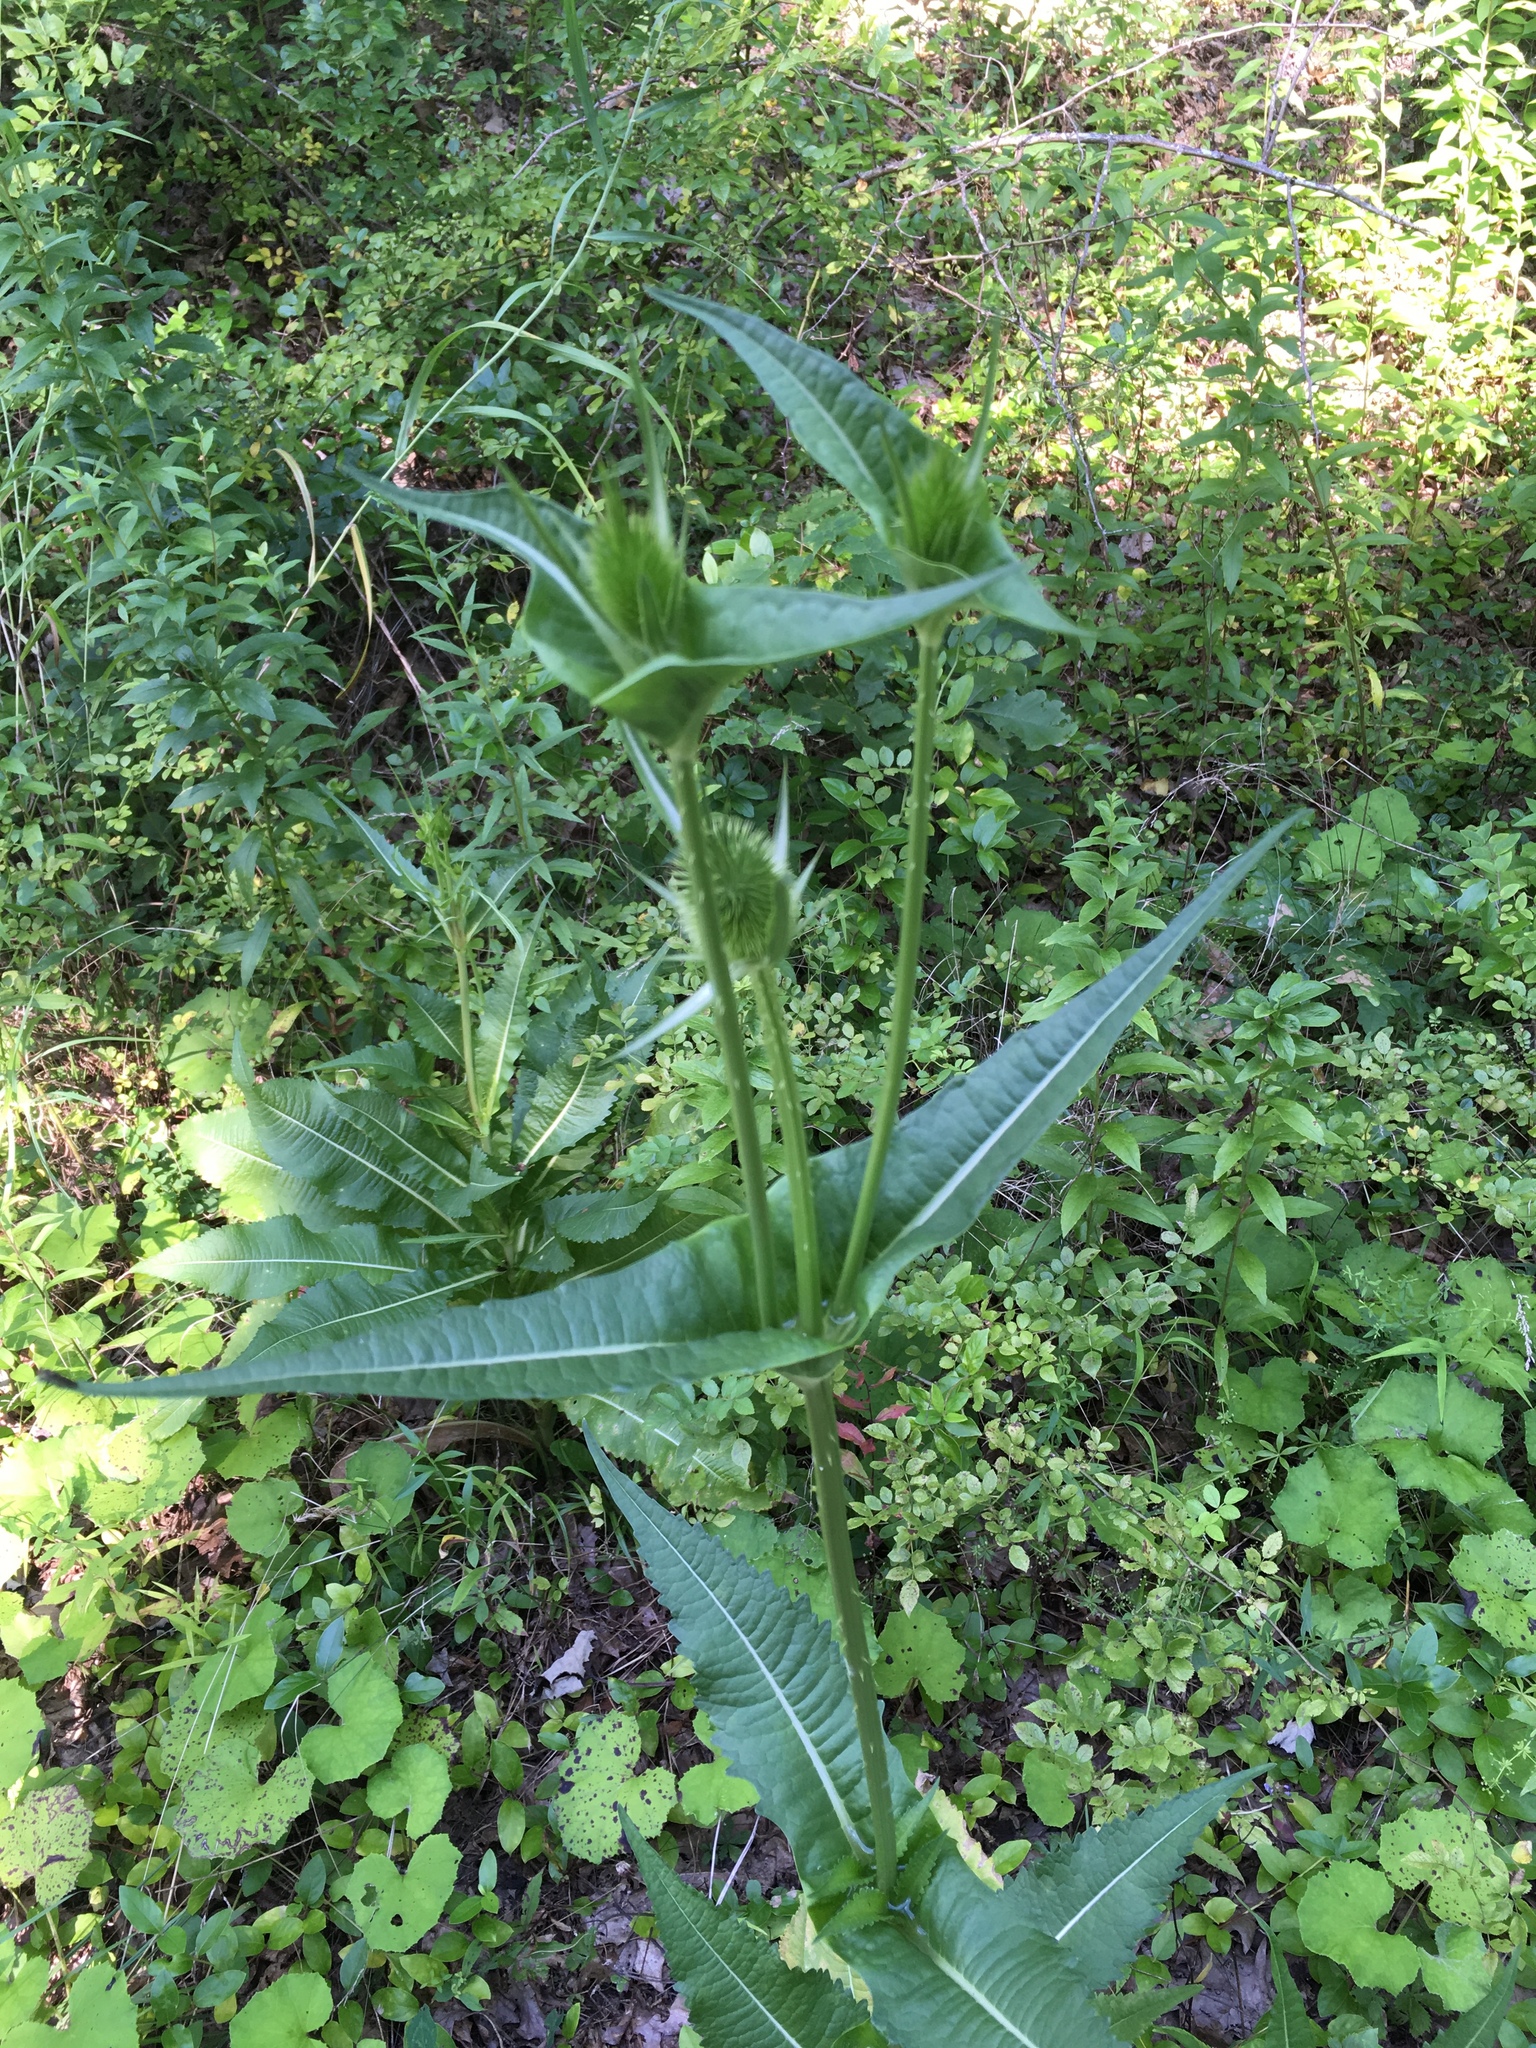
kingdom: Plantae
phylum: Tracheophyta
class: Magnoliopsida
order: Dipsacales
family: Caprifoliaceae
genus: Dipsacus
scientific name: Dipsacus fullonum
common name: Teasel
